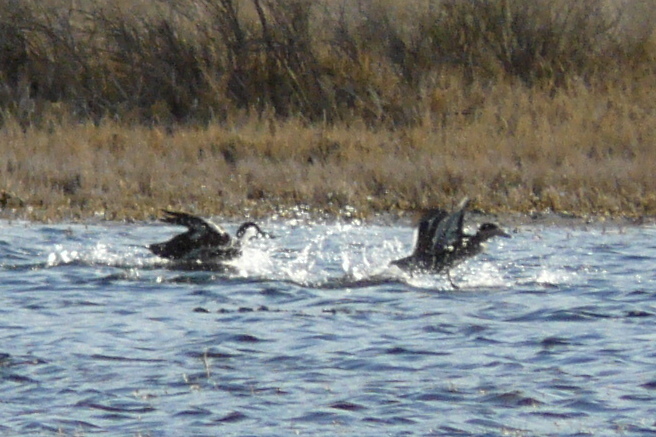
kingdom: Animalia
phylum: Chordata
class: Aves
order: Anseriformes
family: Anatidae
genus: Spatula
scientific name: Spatula versicolor
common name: Silver teal
